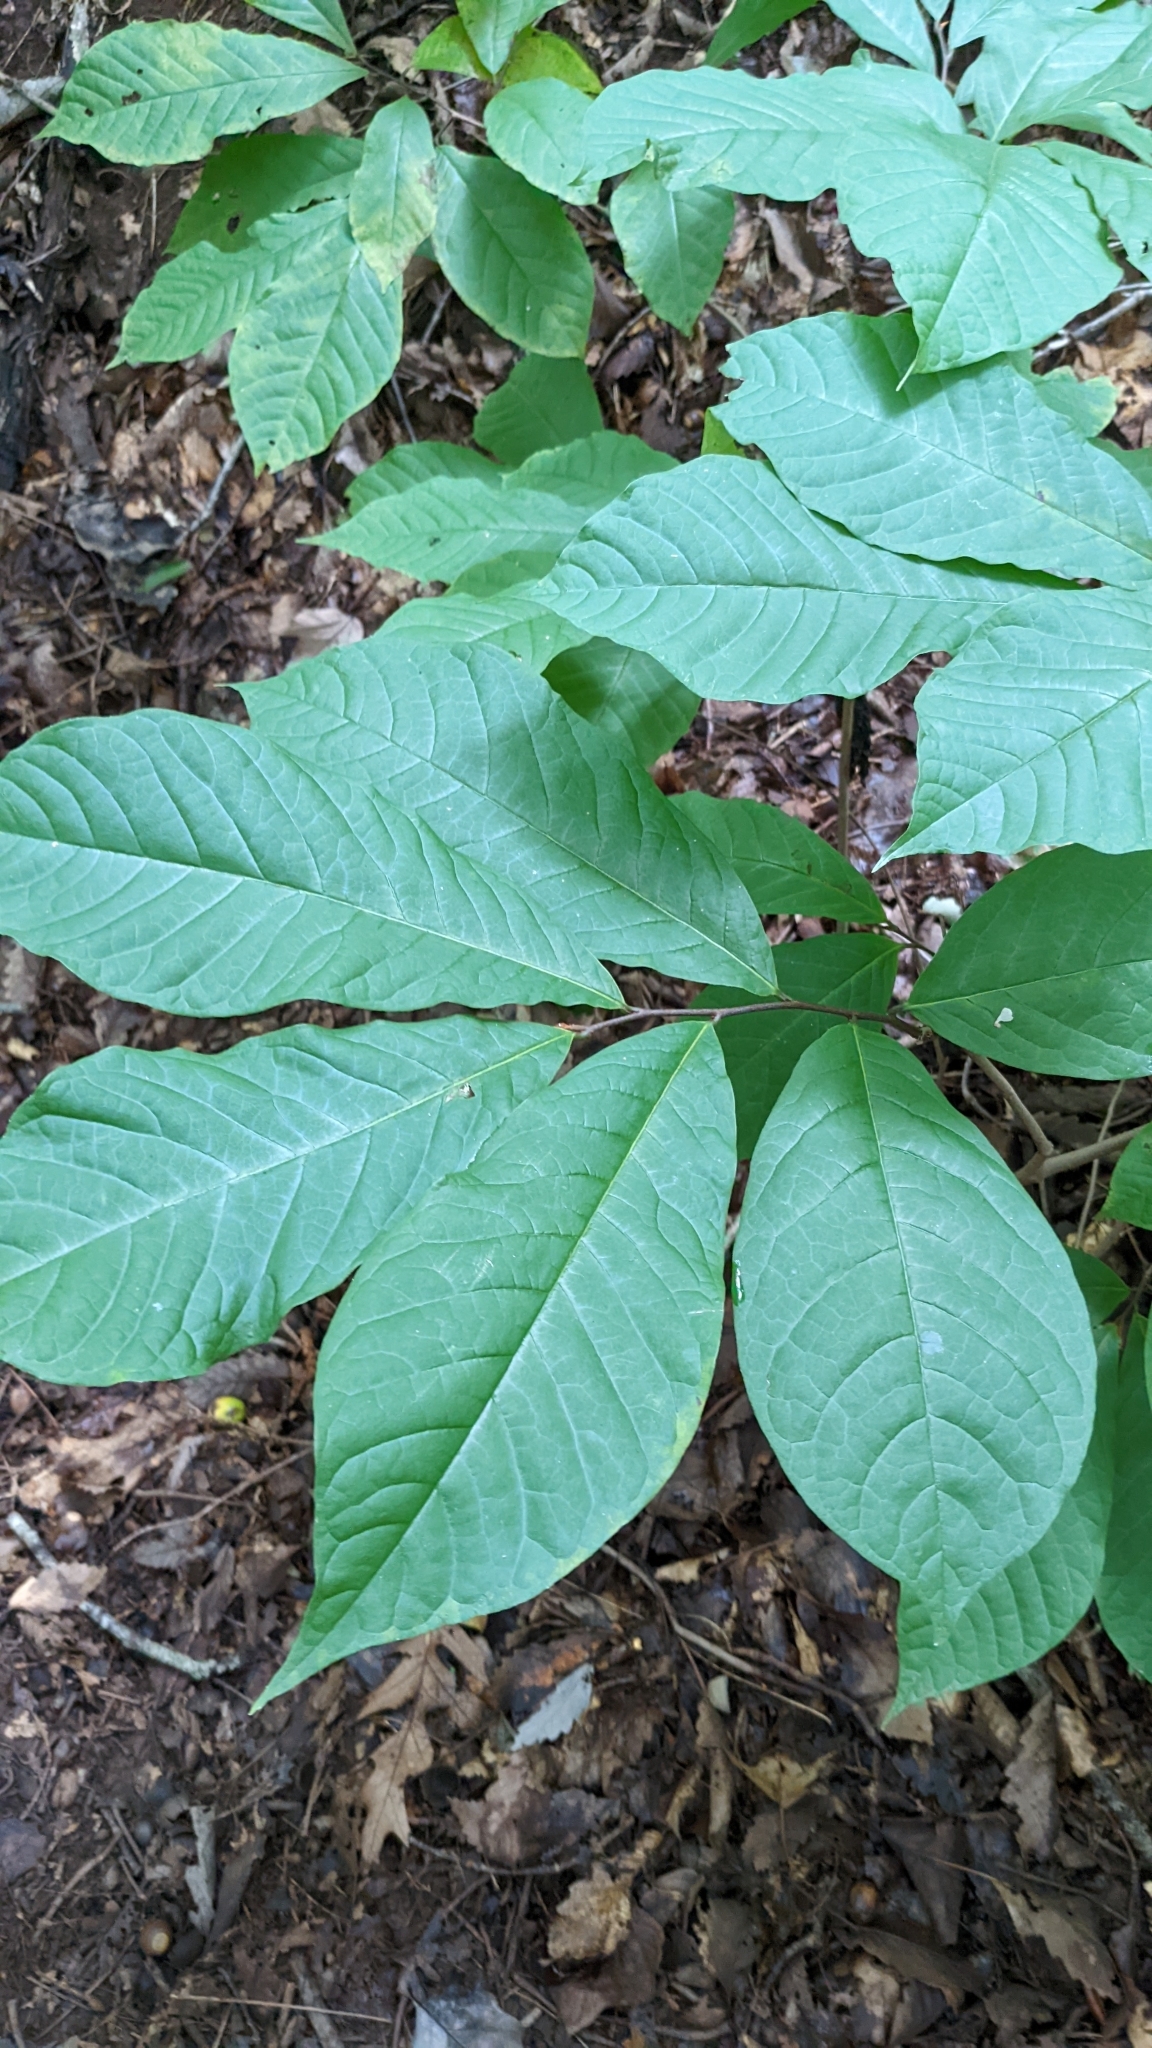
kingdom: Plantae
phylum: Tracheophyta
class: Magnoliopsida
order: Magnoliales
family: Annonaceae
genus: Asimina
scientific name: Asimina triloba
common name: Dog-banana
